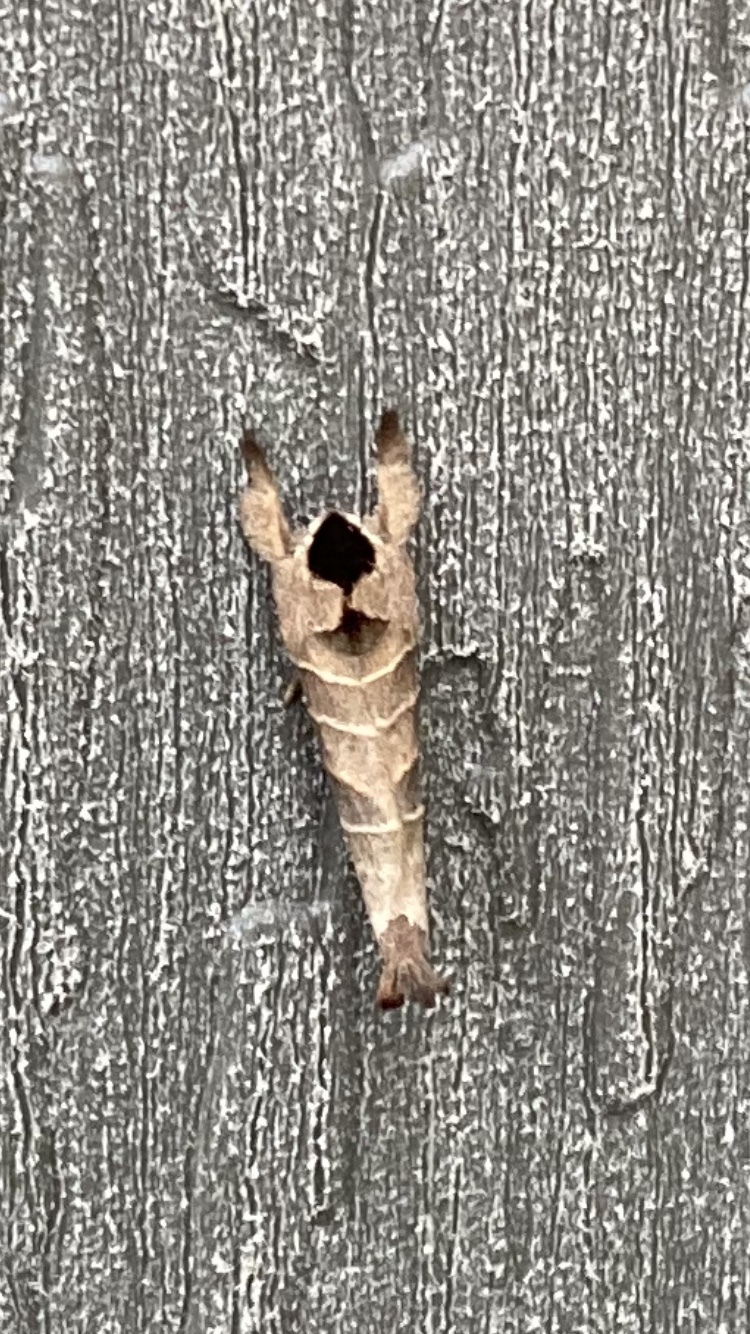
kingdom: Animalia
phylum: Arthropoda
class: Insecta
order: Lepidoptera
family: Notodontidae
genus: Clostera
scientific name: Clostera albosigma
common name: Sigmoid prominent
